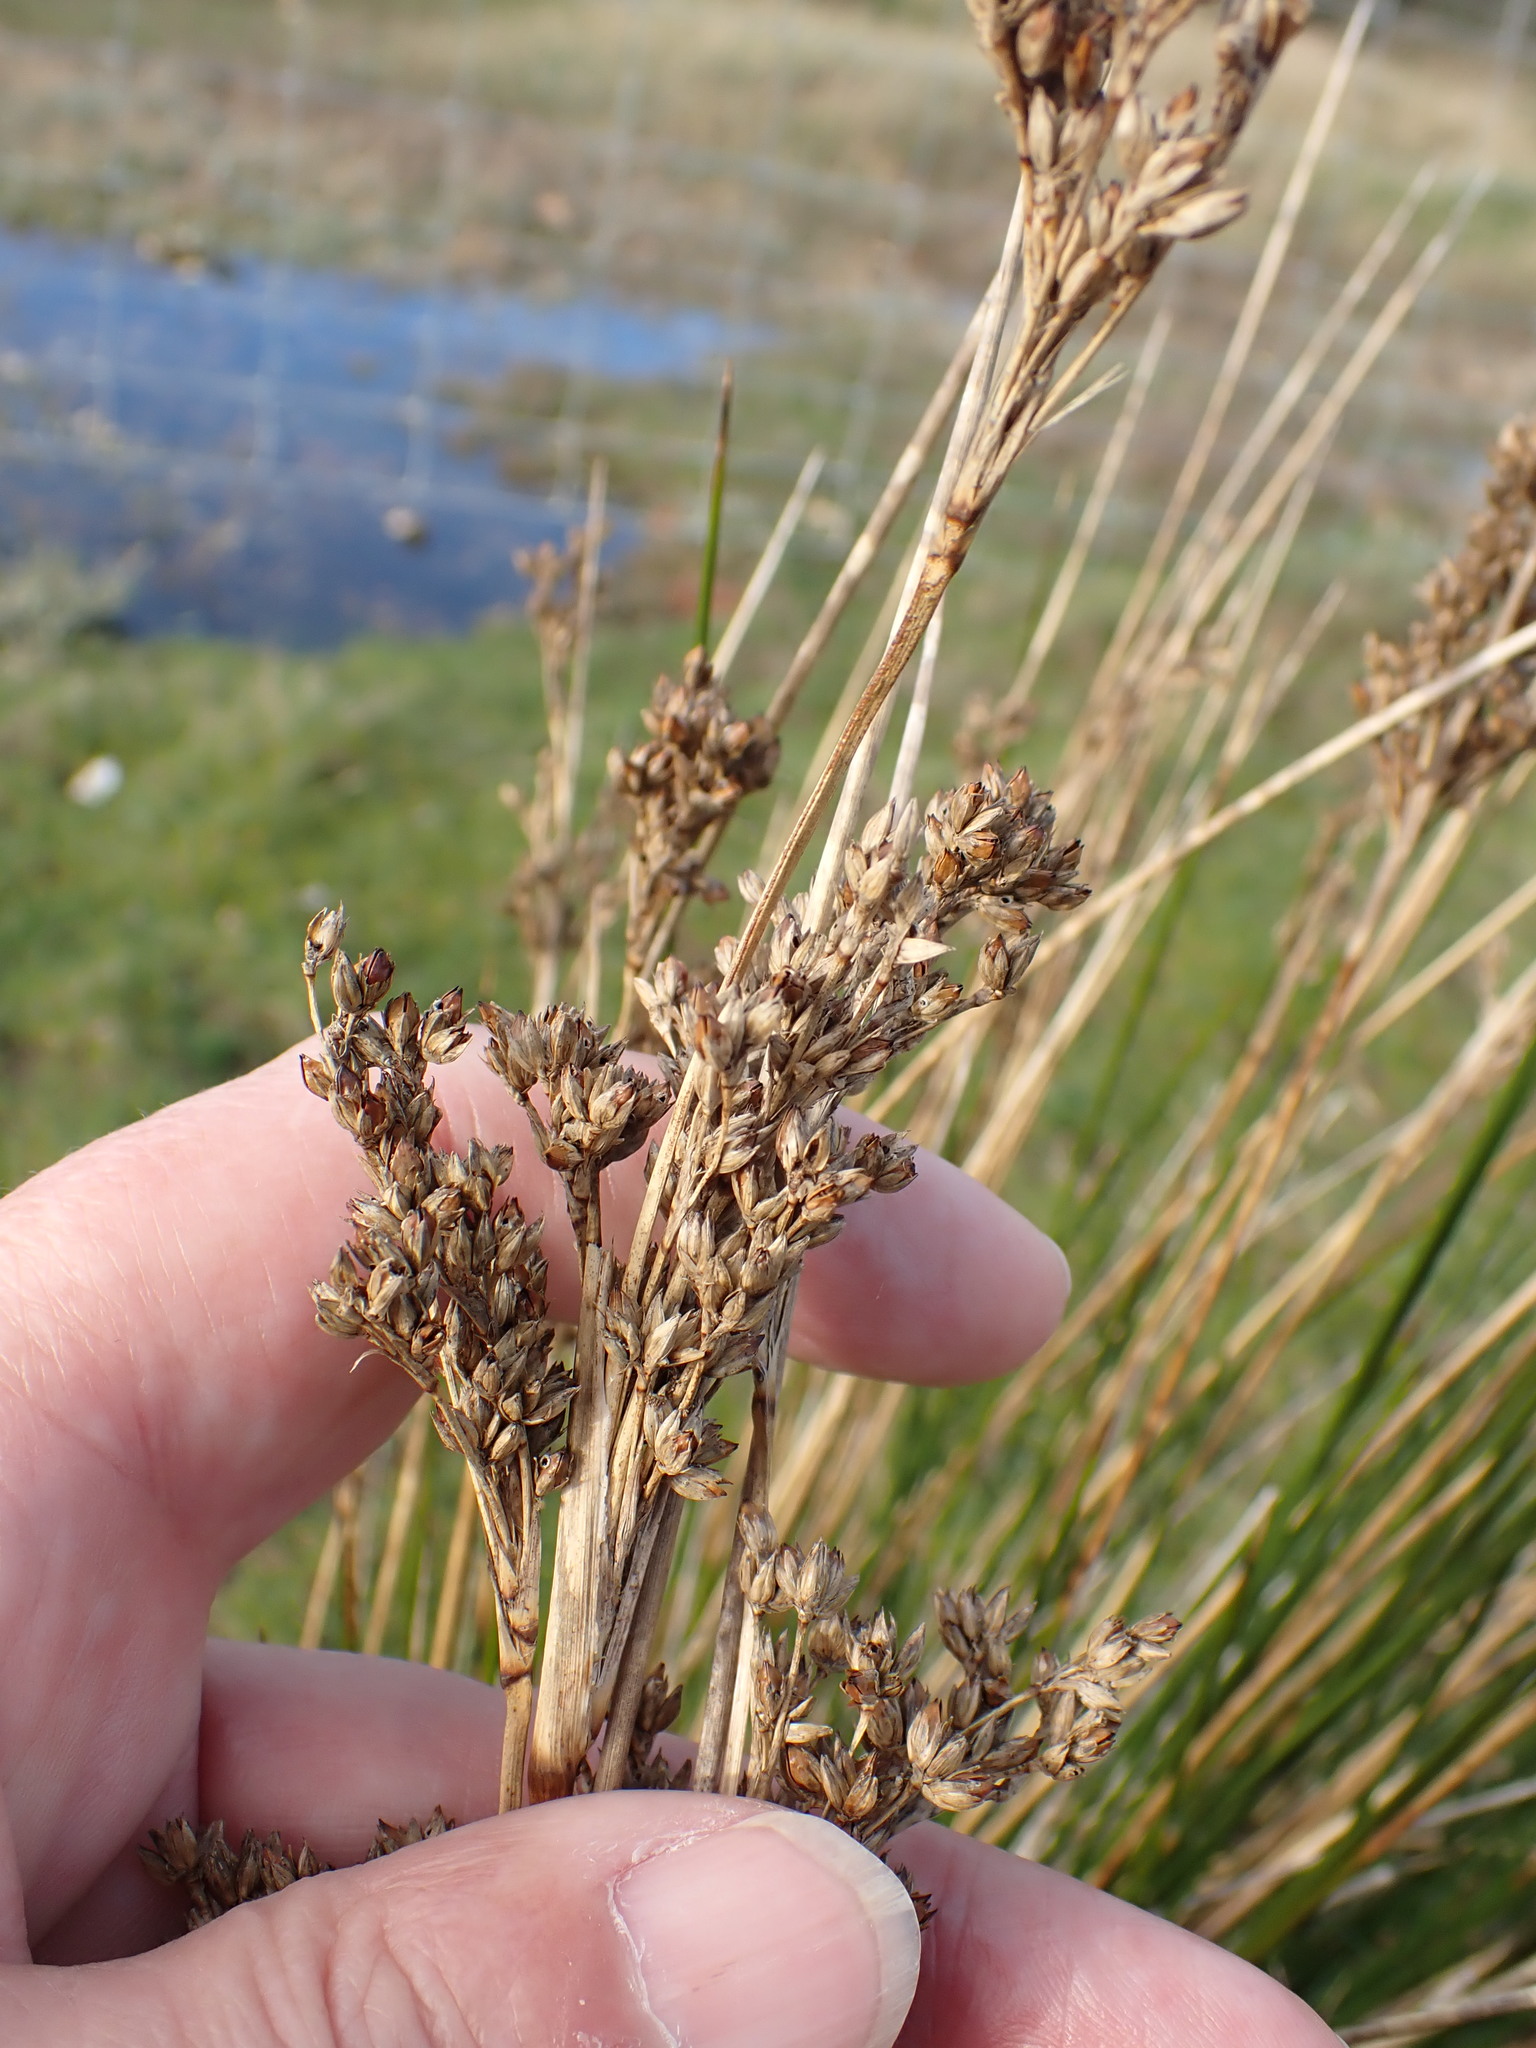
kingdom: Plantae
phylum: Tracheophyta
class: Liliopsida
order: Poales
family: Juncaceae
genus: Juncus
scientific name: Juncus maritimus
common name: Sea rush
